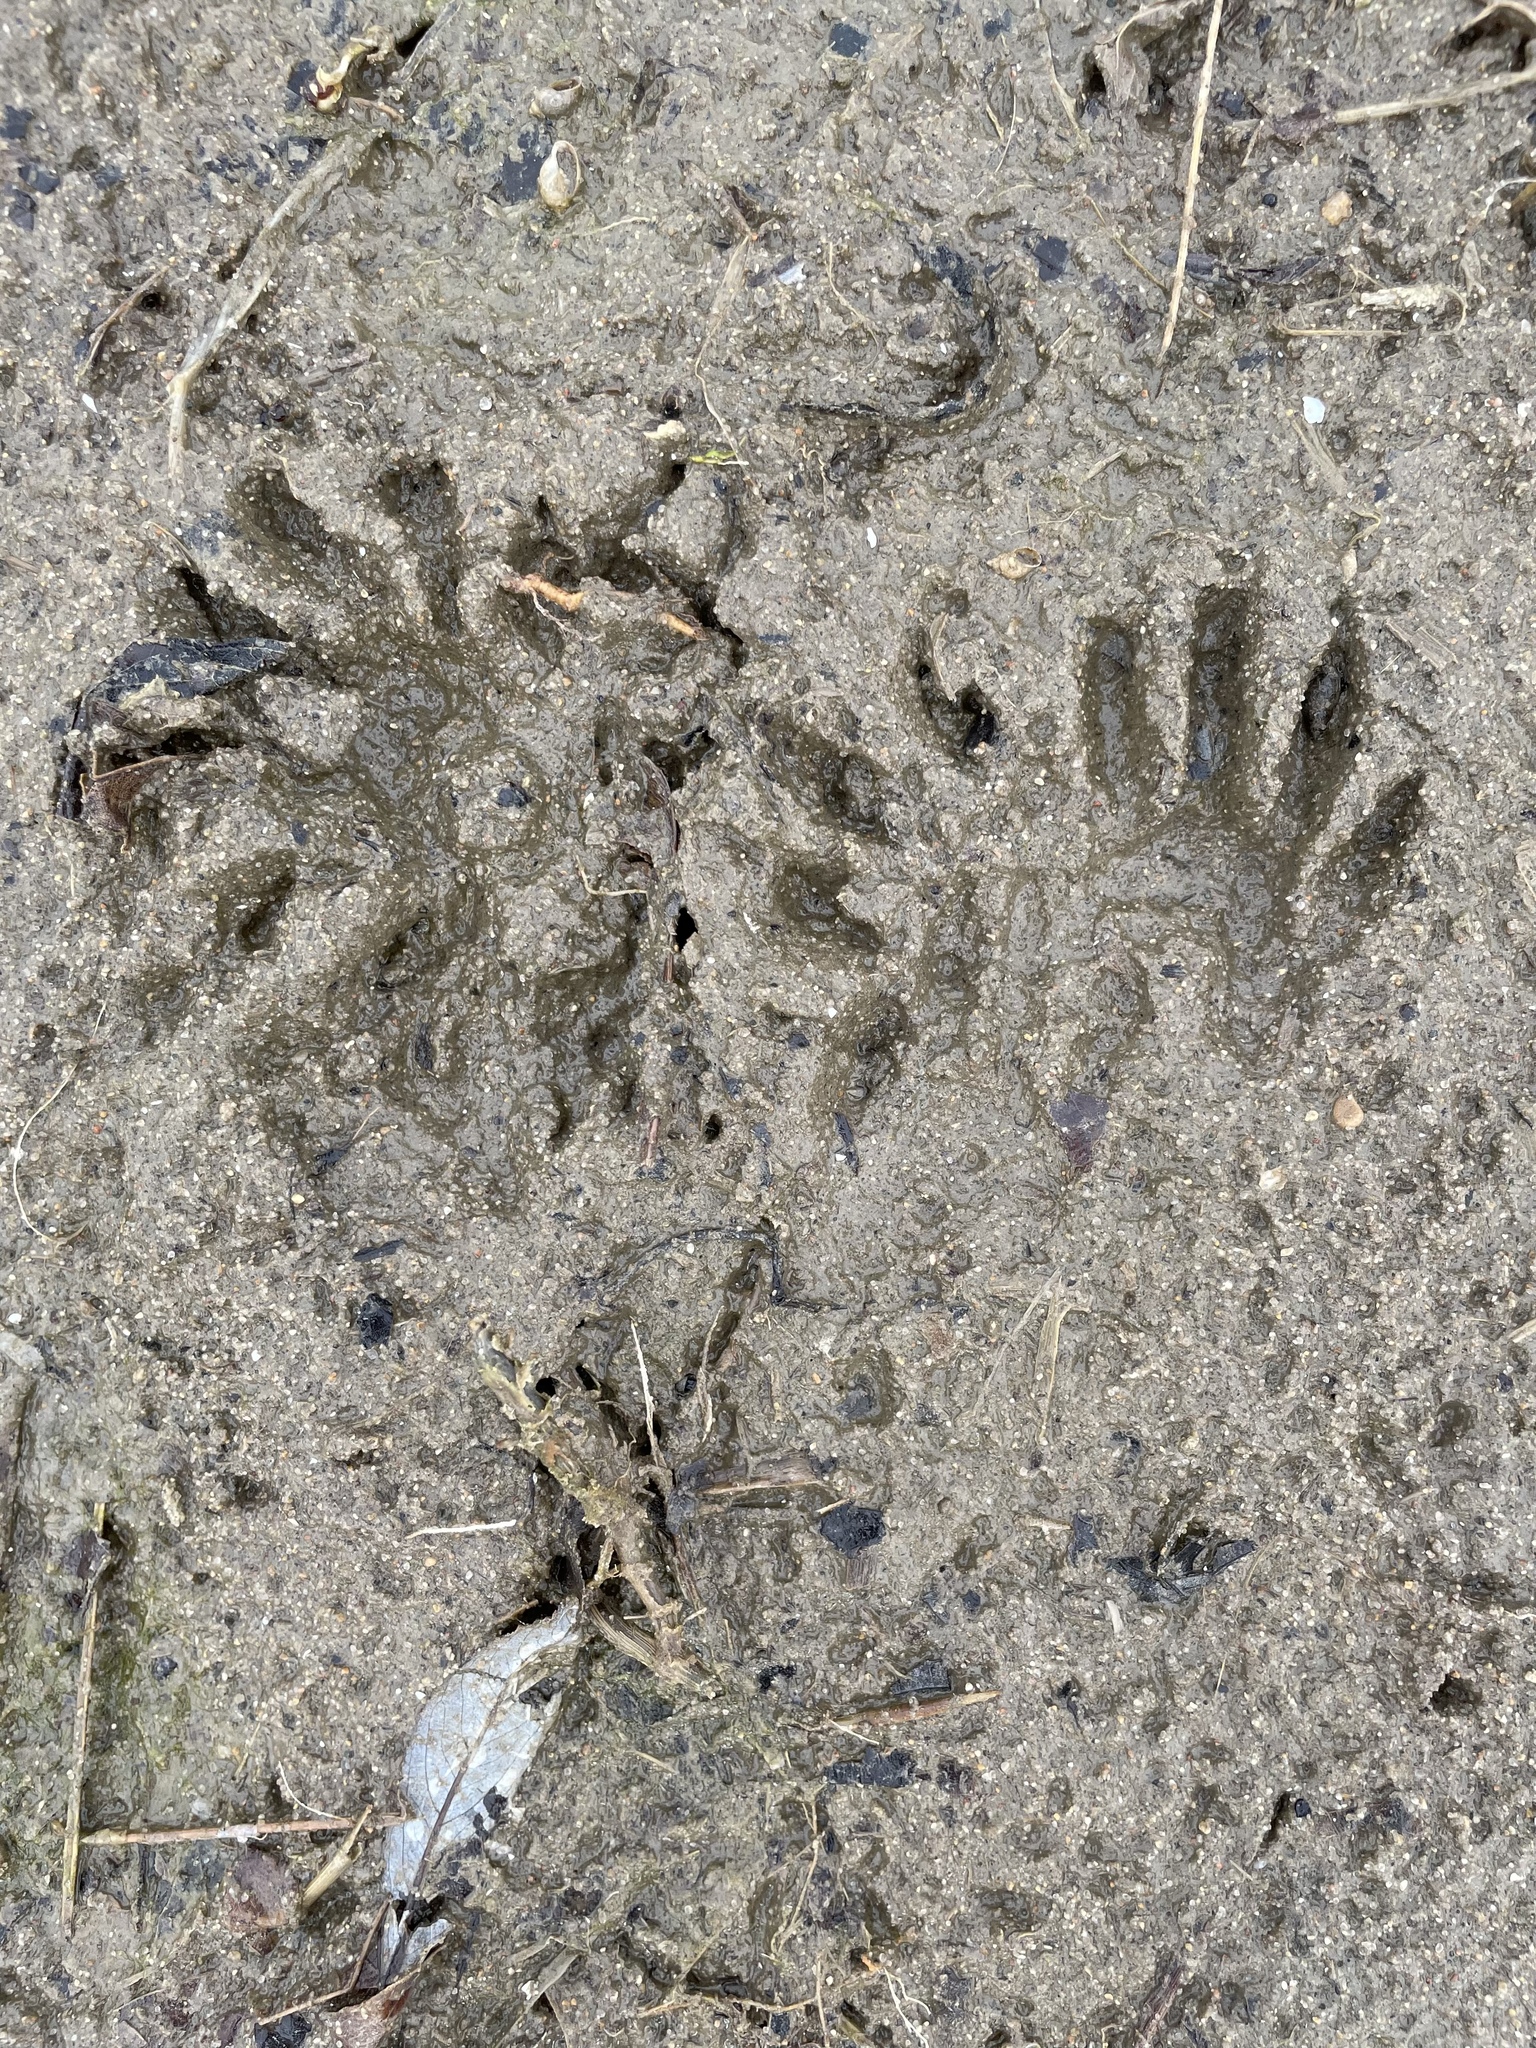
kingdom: Animalia
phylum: Chordata
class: Mammalia
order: Carnivora
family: Procyonidae
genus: Procyon
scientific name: Procyon lotor
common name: Raccoon
